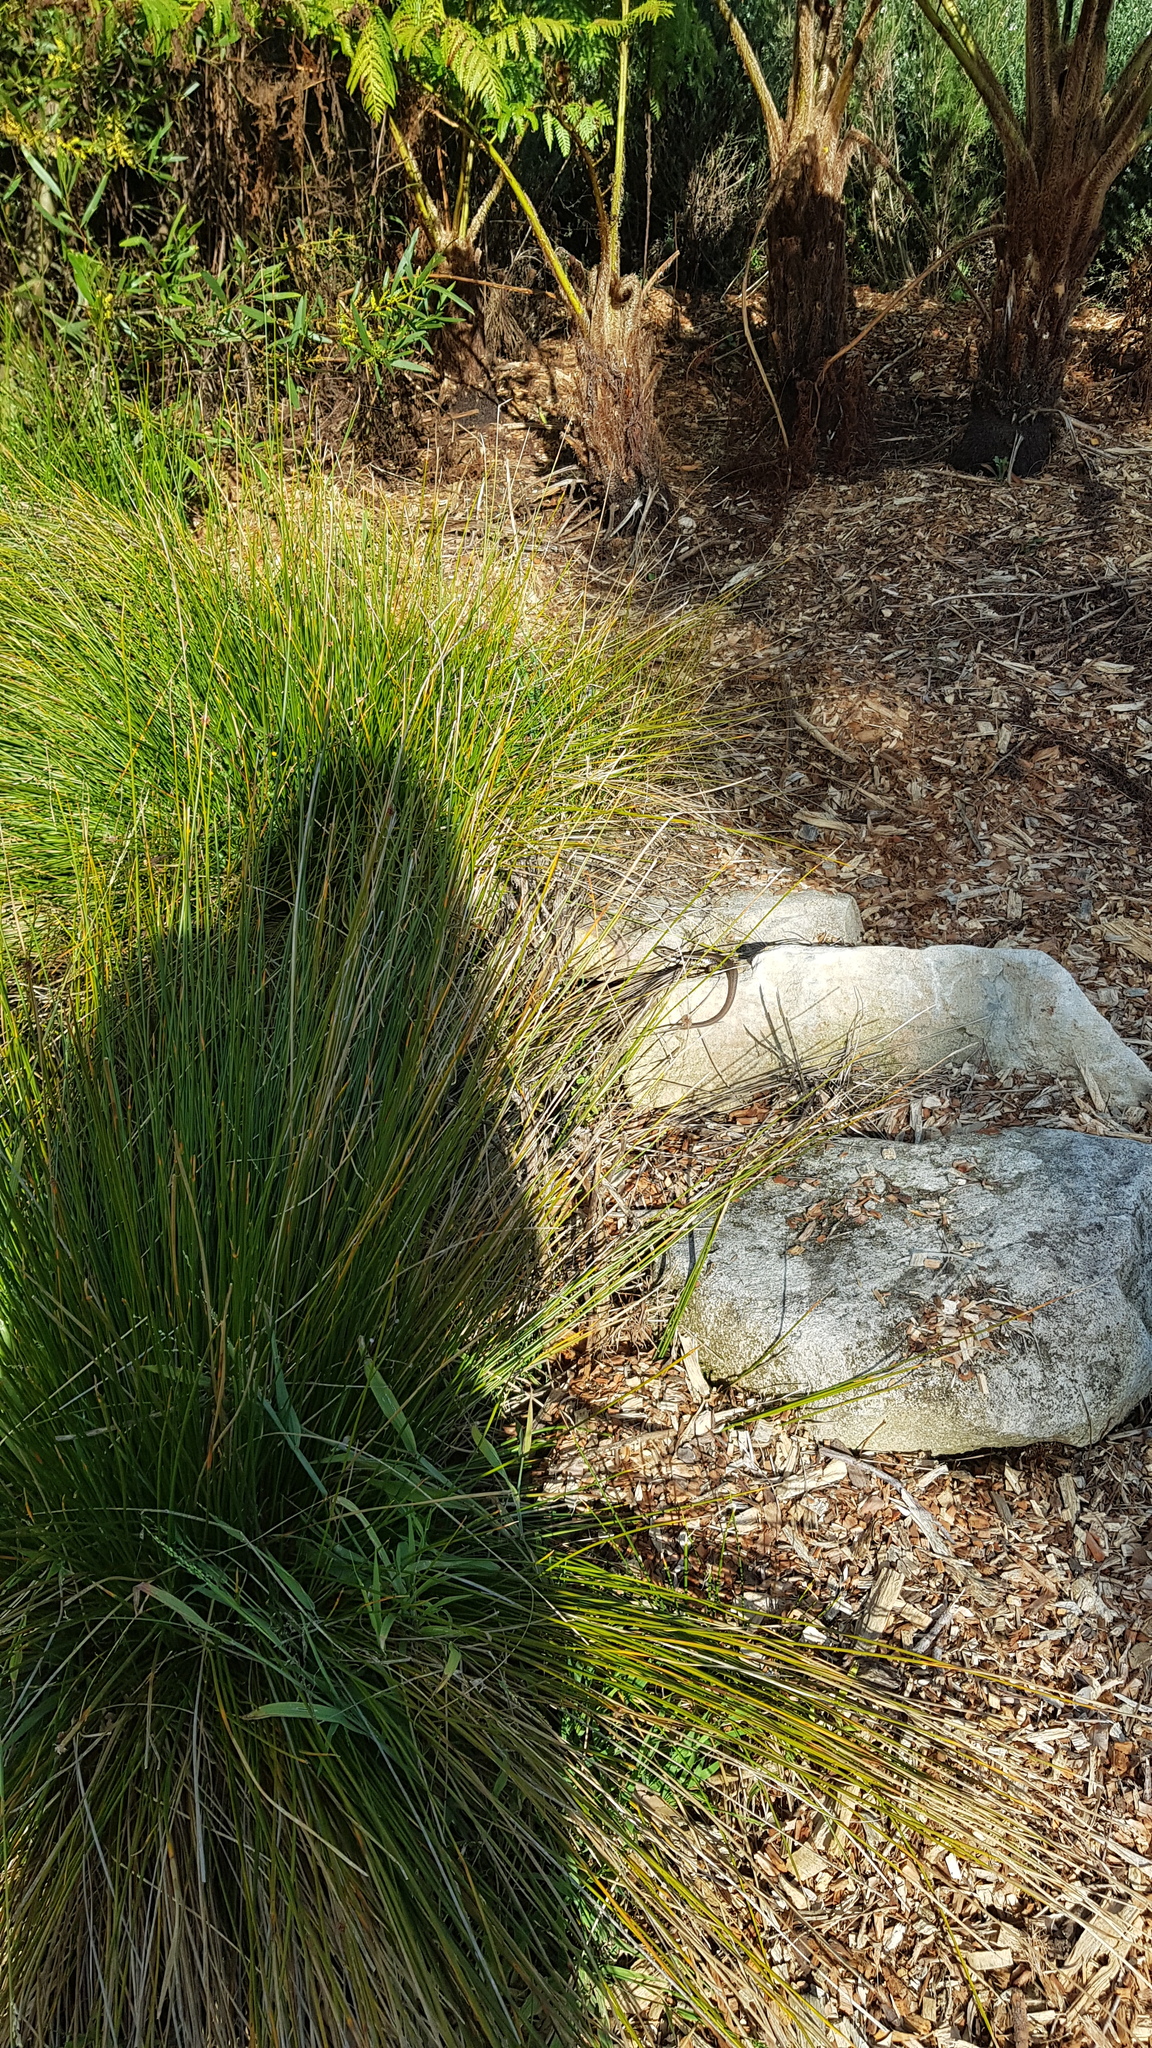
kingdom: Animalia
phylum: Chordata
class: Squamata
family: Scincidae
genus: Eulamprus
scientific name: Eulamprus quoyii
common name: Eastern water skink
